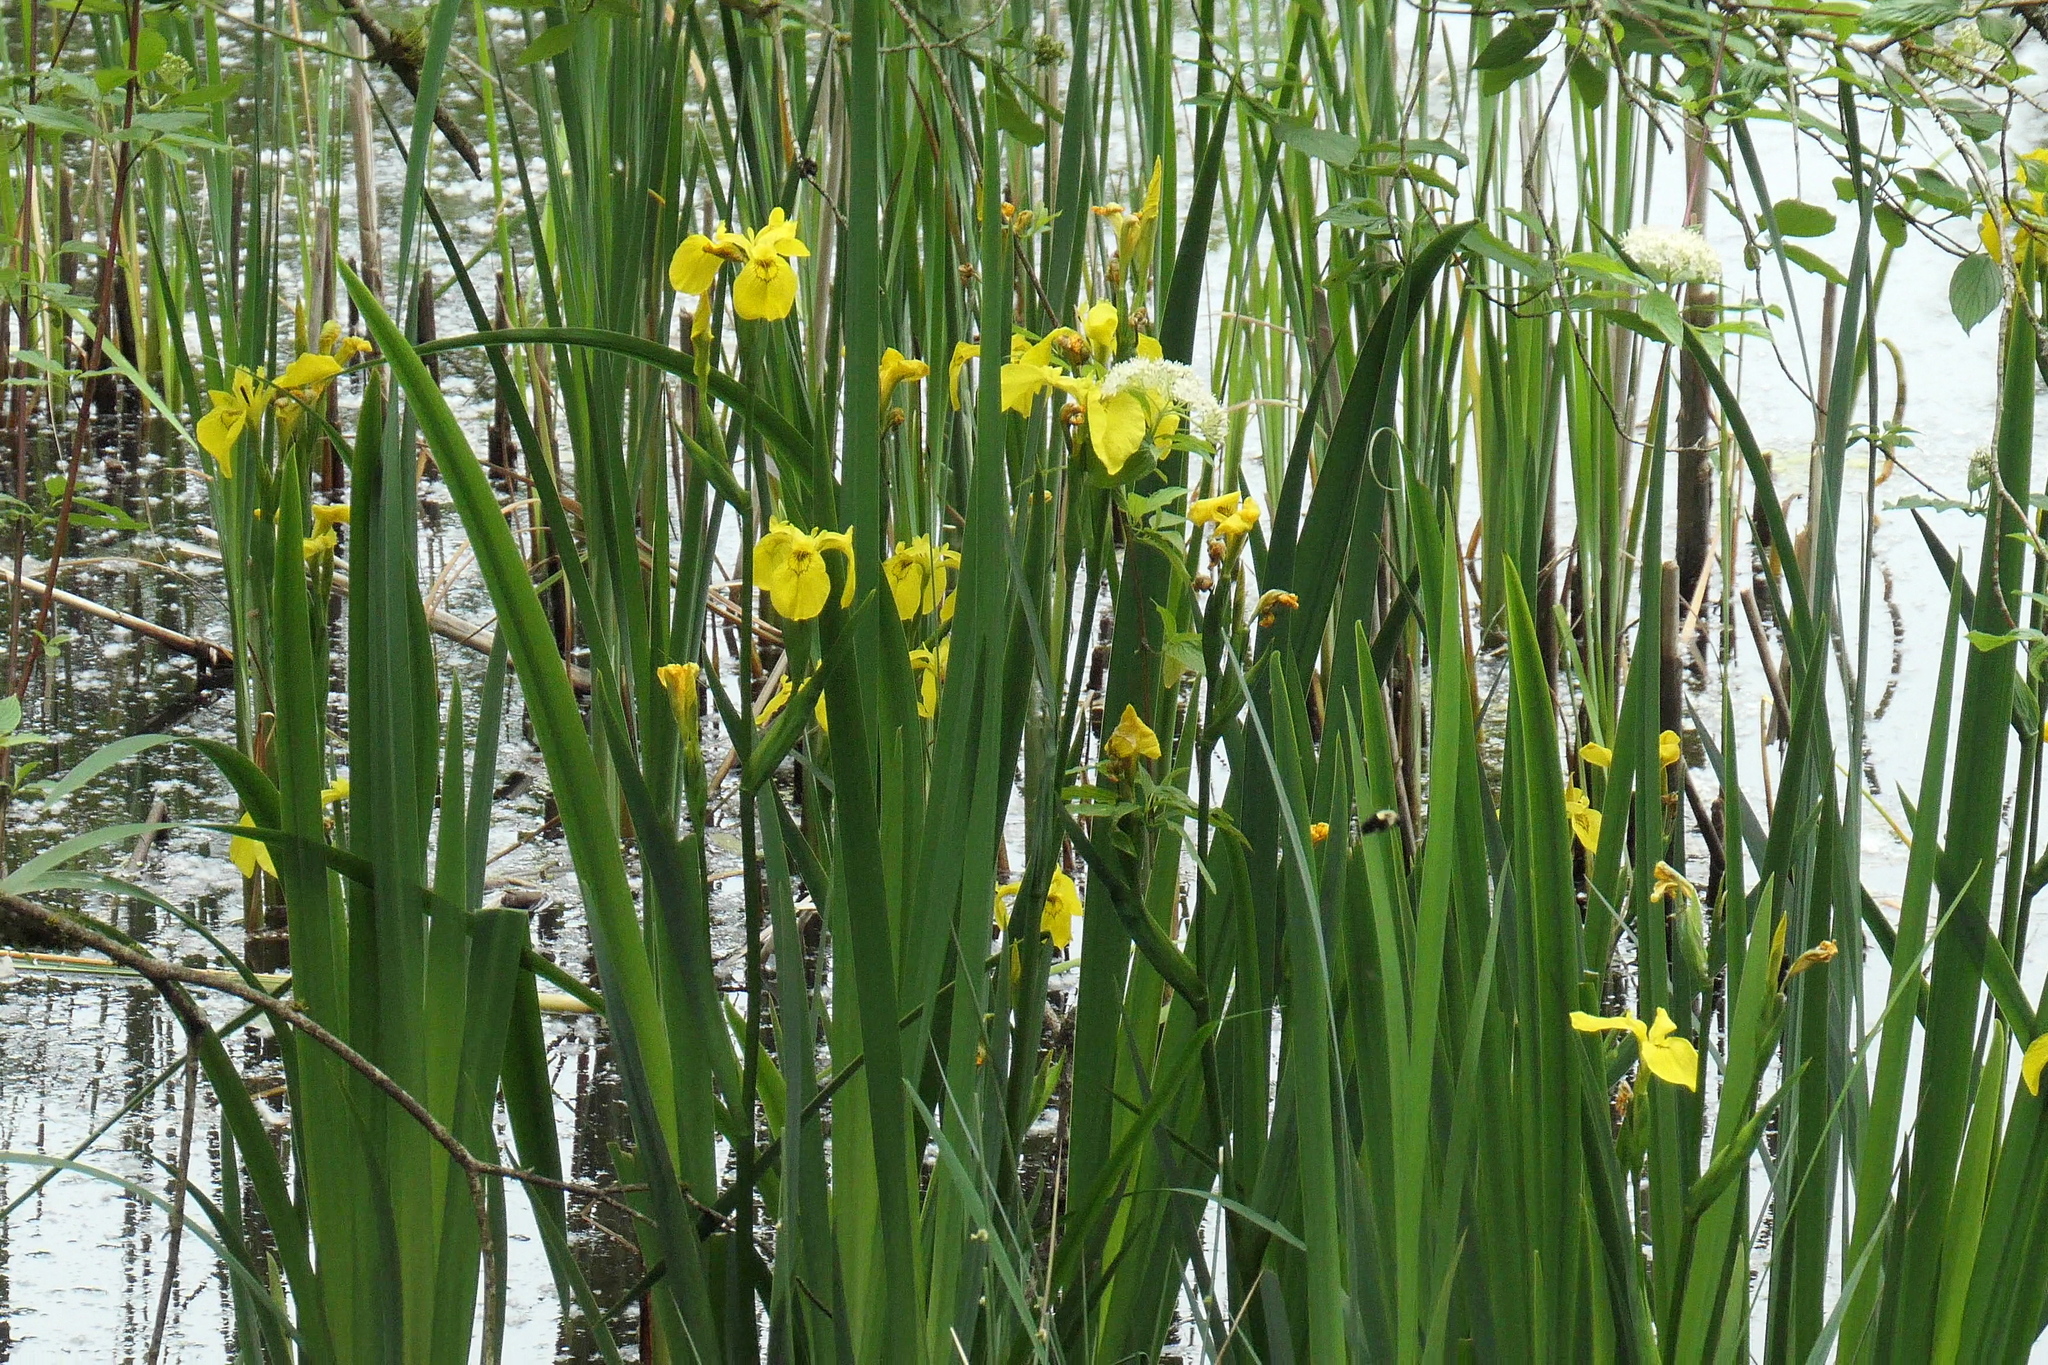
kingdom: Plantae
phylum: Tracheophyta
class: Liliopsida
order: Asparagales
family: Iridaceae
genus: Iris
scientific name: Iris pseudacorus
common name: Yellow flag
